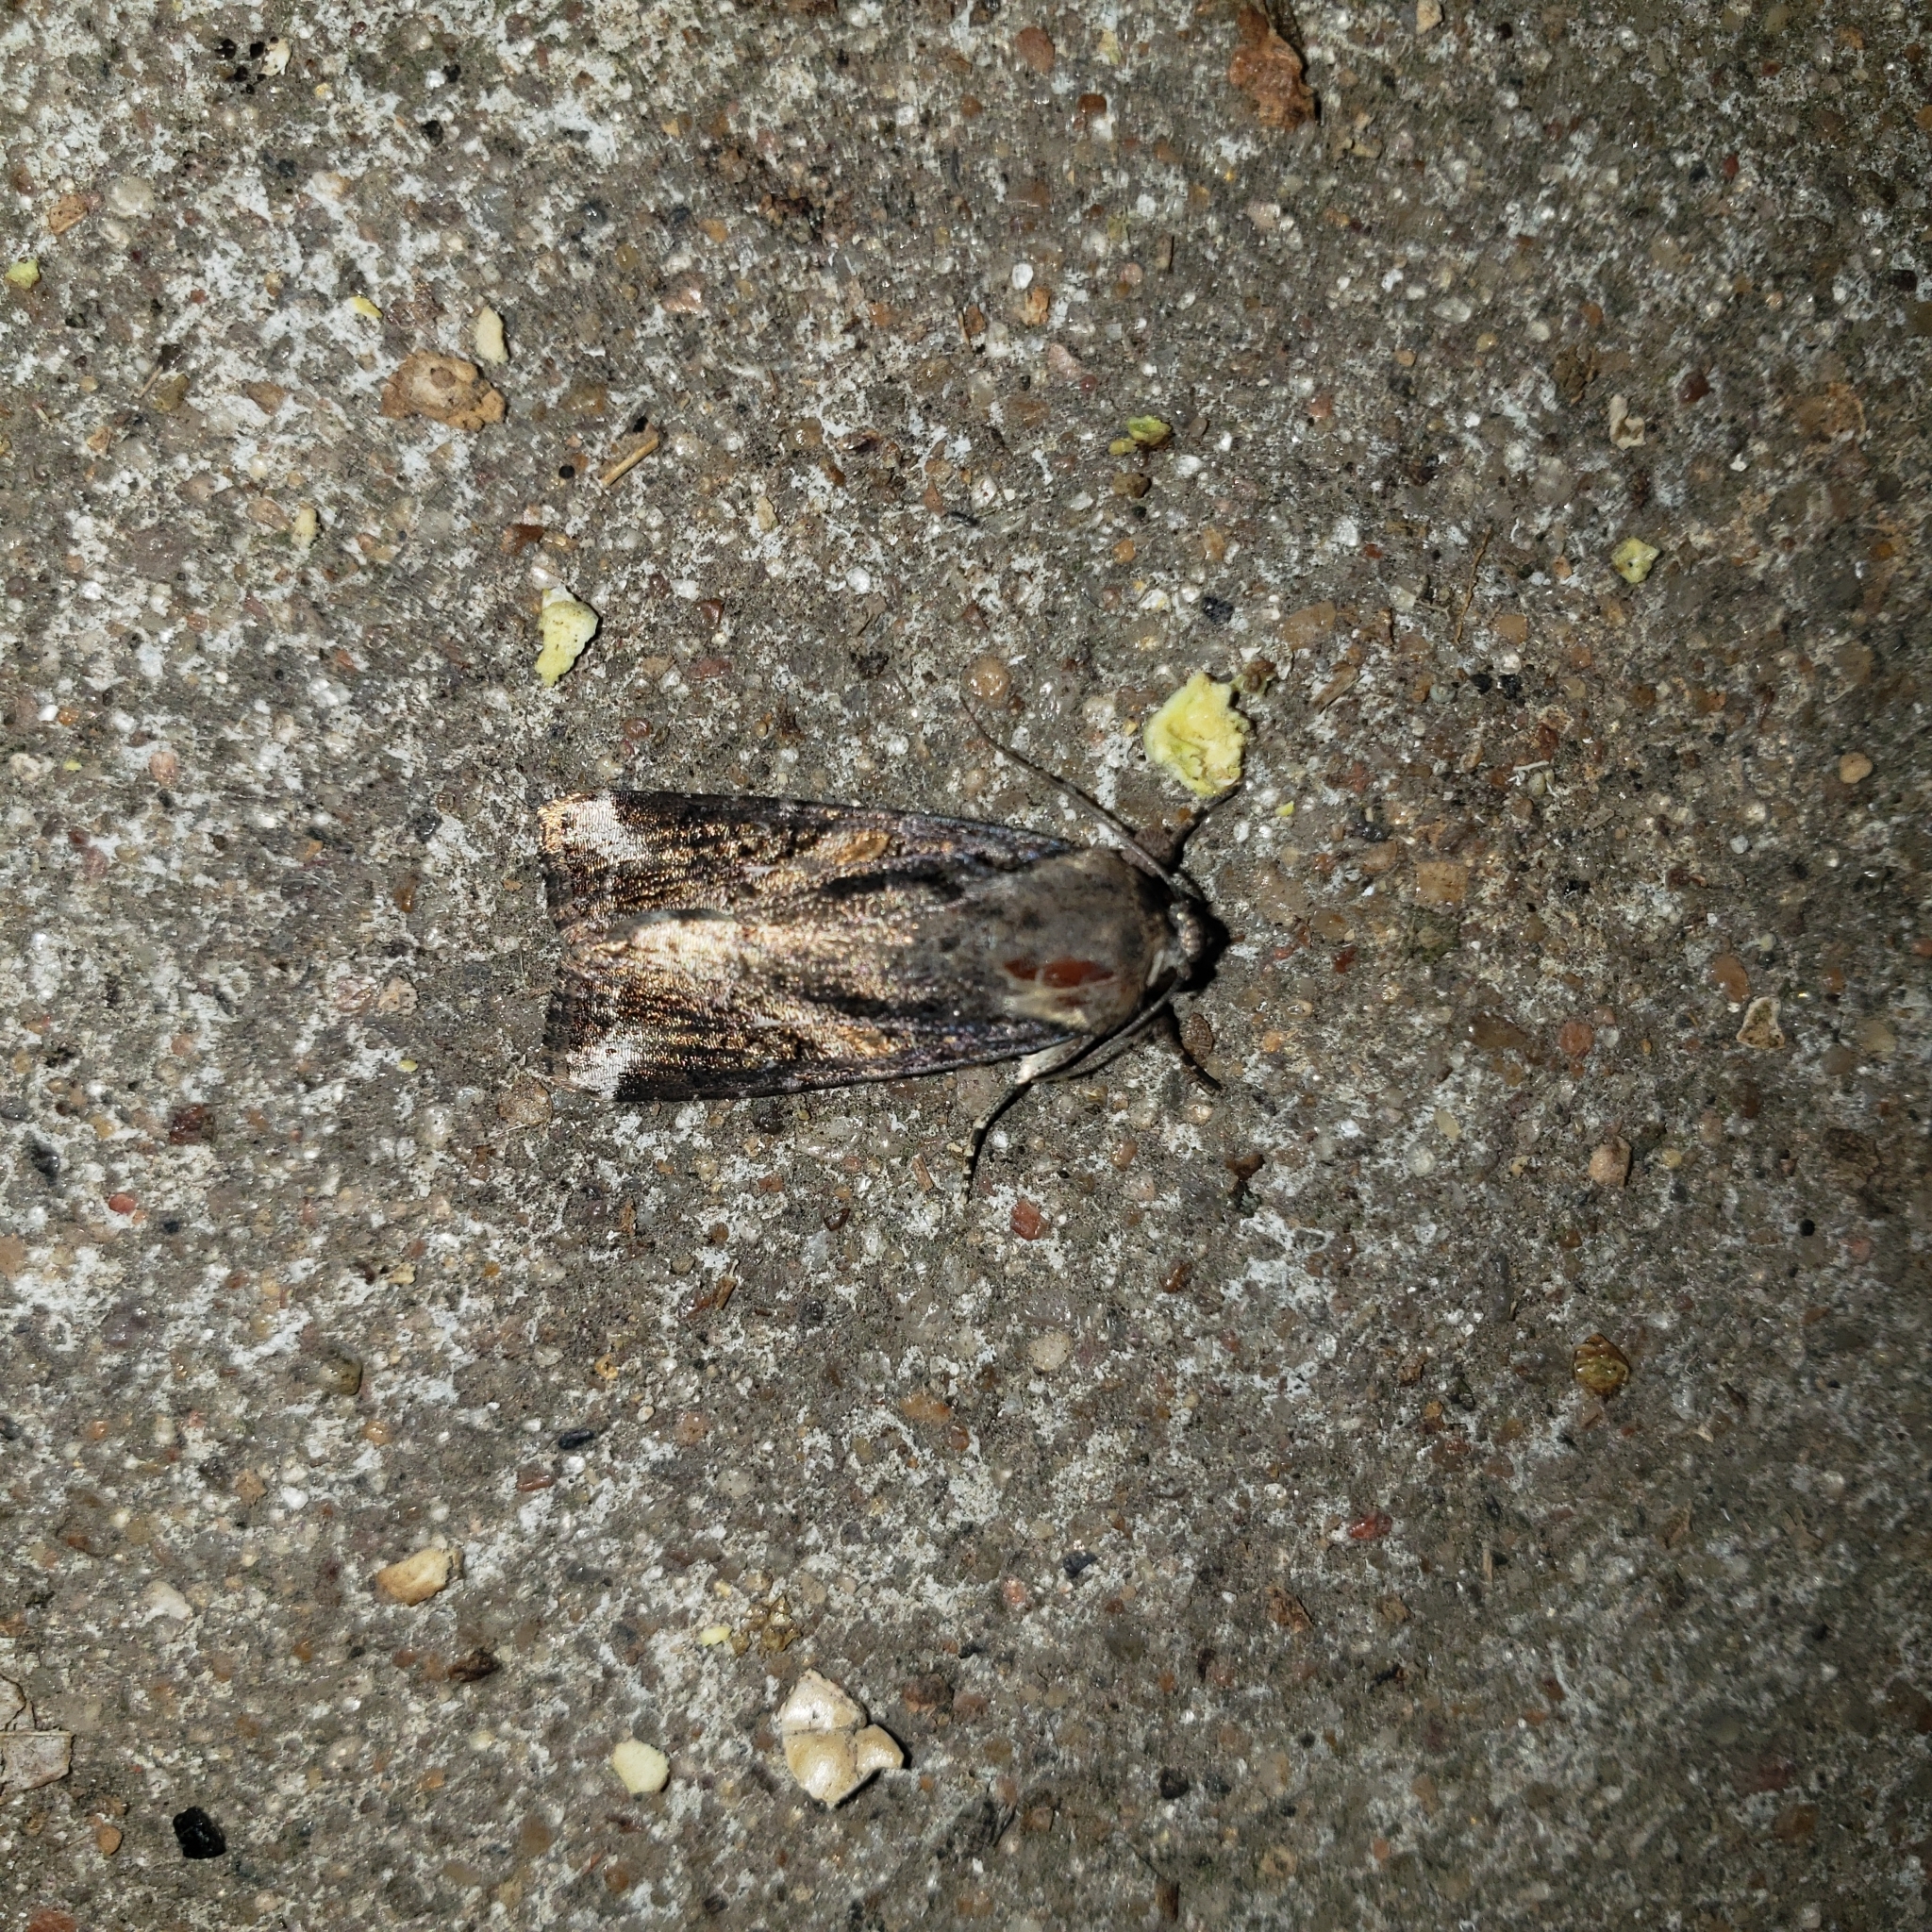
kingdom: Animalia
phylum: Arthropoda
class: Insecta
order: Lepidoptera
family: Noctuidae
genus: Spodoptera
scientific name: Spodoptera frugiperda
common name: Fall armyworm
